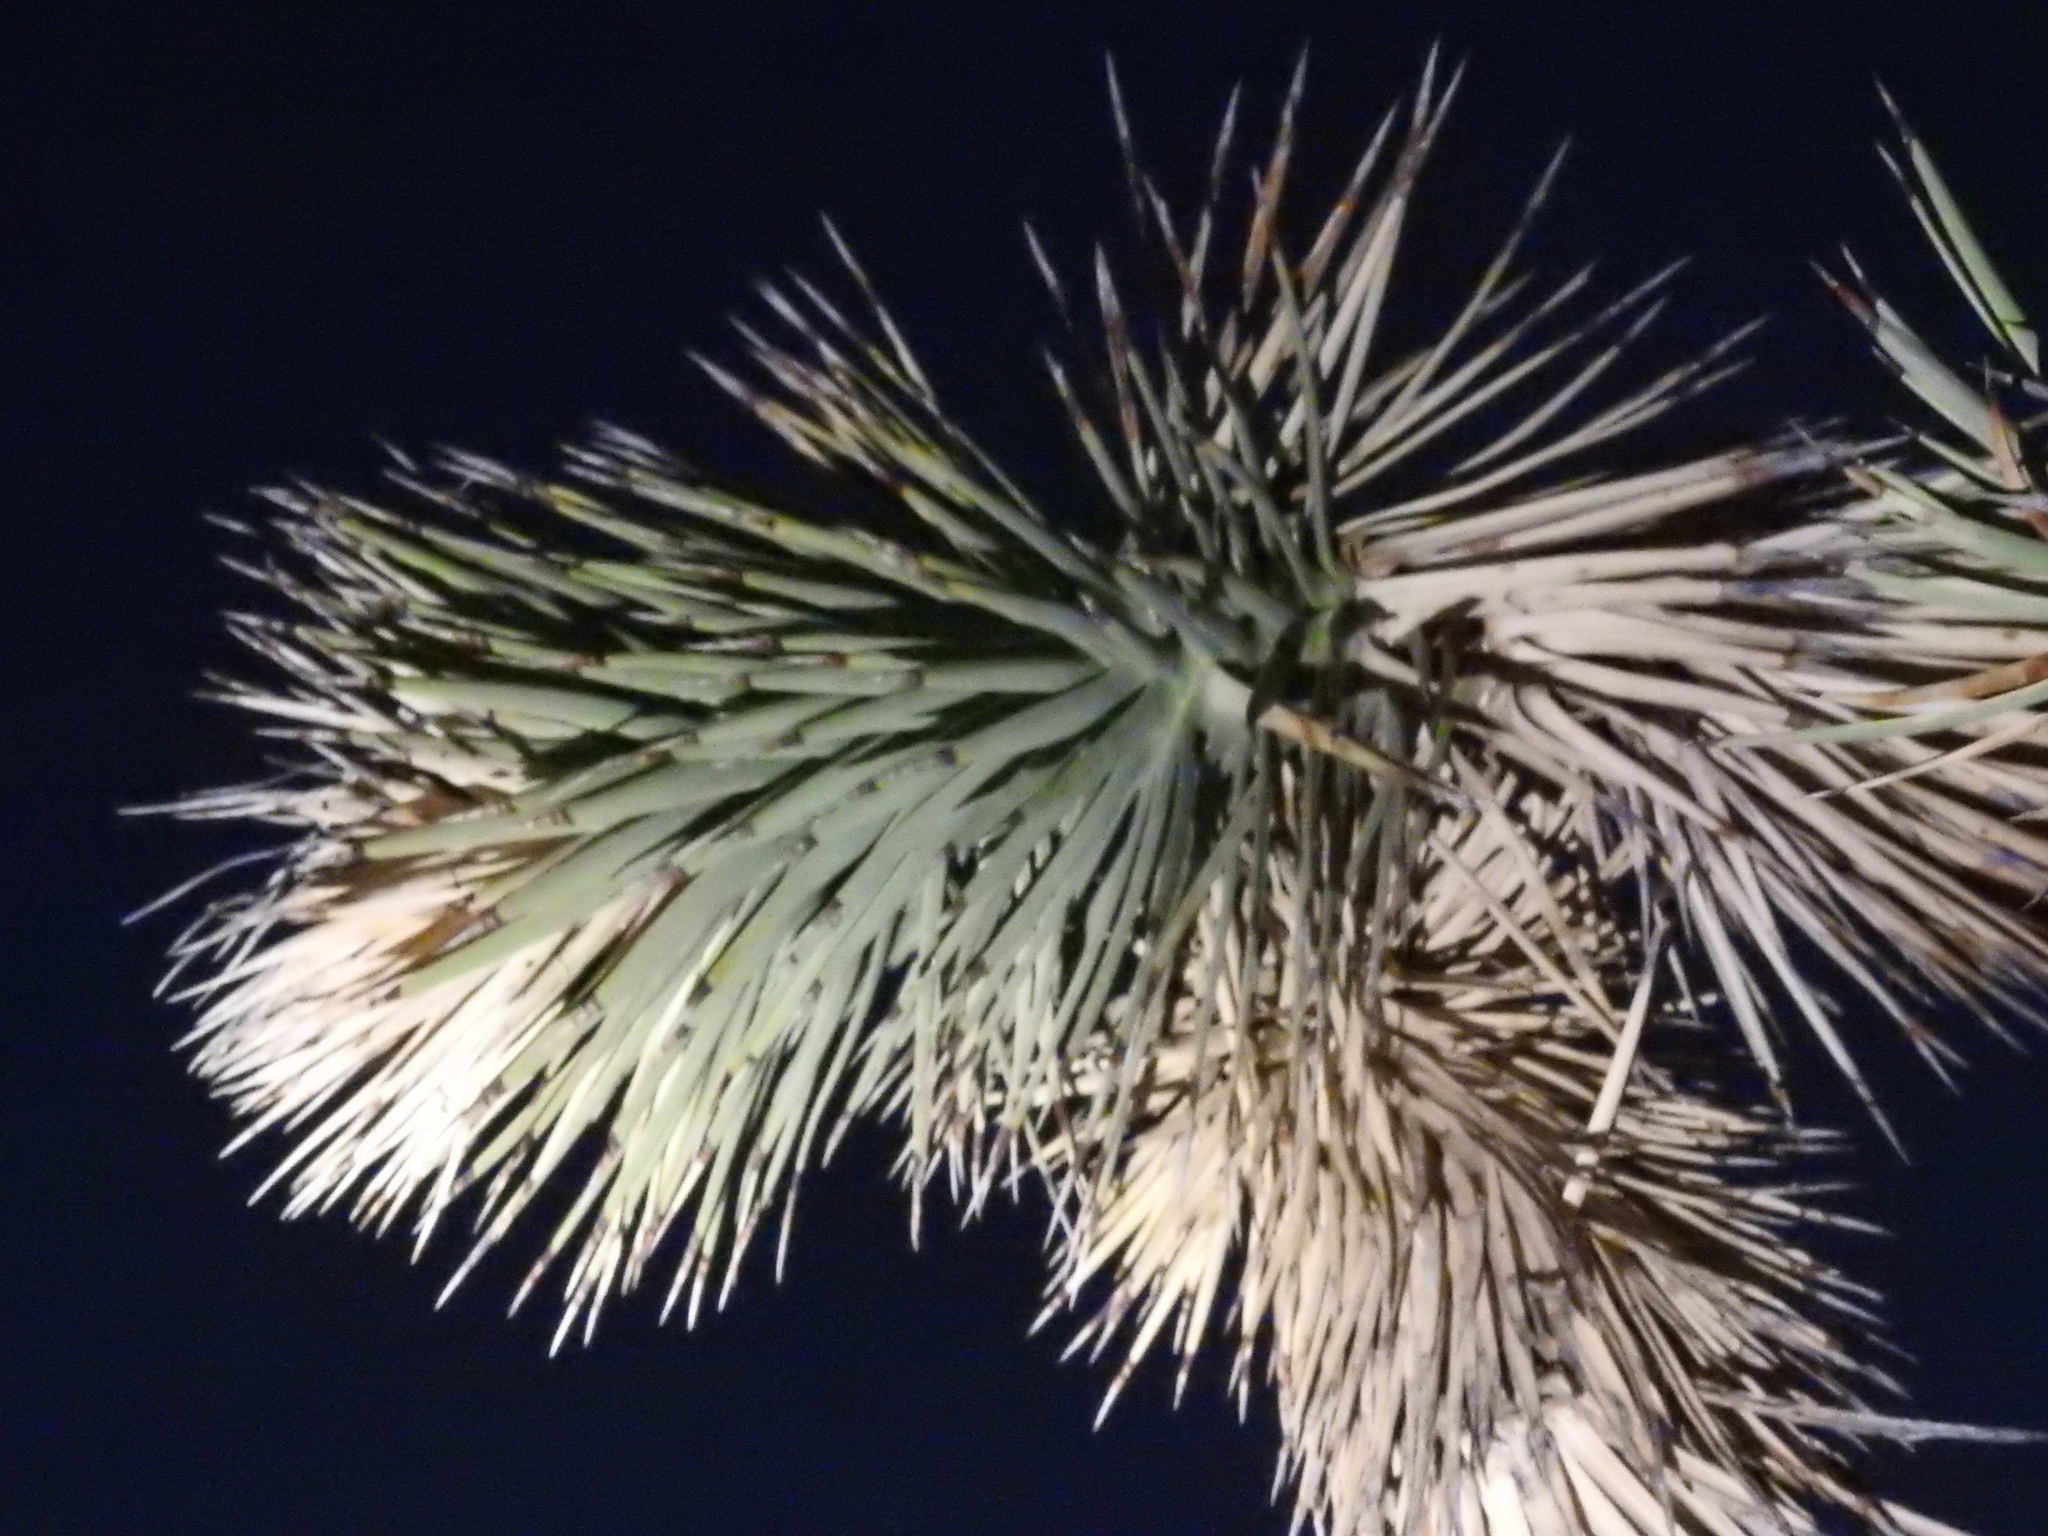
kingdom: Plantae
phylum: Tracheophyta
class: Liliopsida
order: Asparagales
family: Asparagaceae
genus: Yucca
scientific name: Yucca brevifolia
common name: Joshua tree
